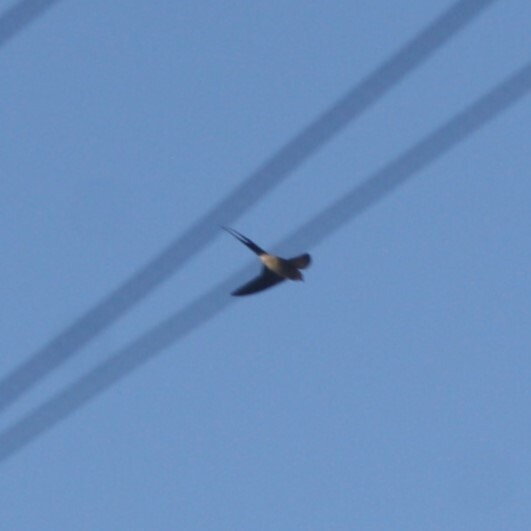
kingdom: Animalia
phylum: Chordata
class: Aves
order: Passeriformes
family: Hirundinidae
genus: Cecropis
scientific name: Cecropis daurica
